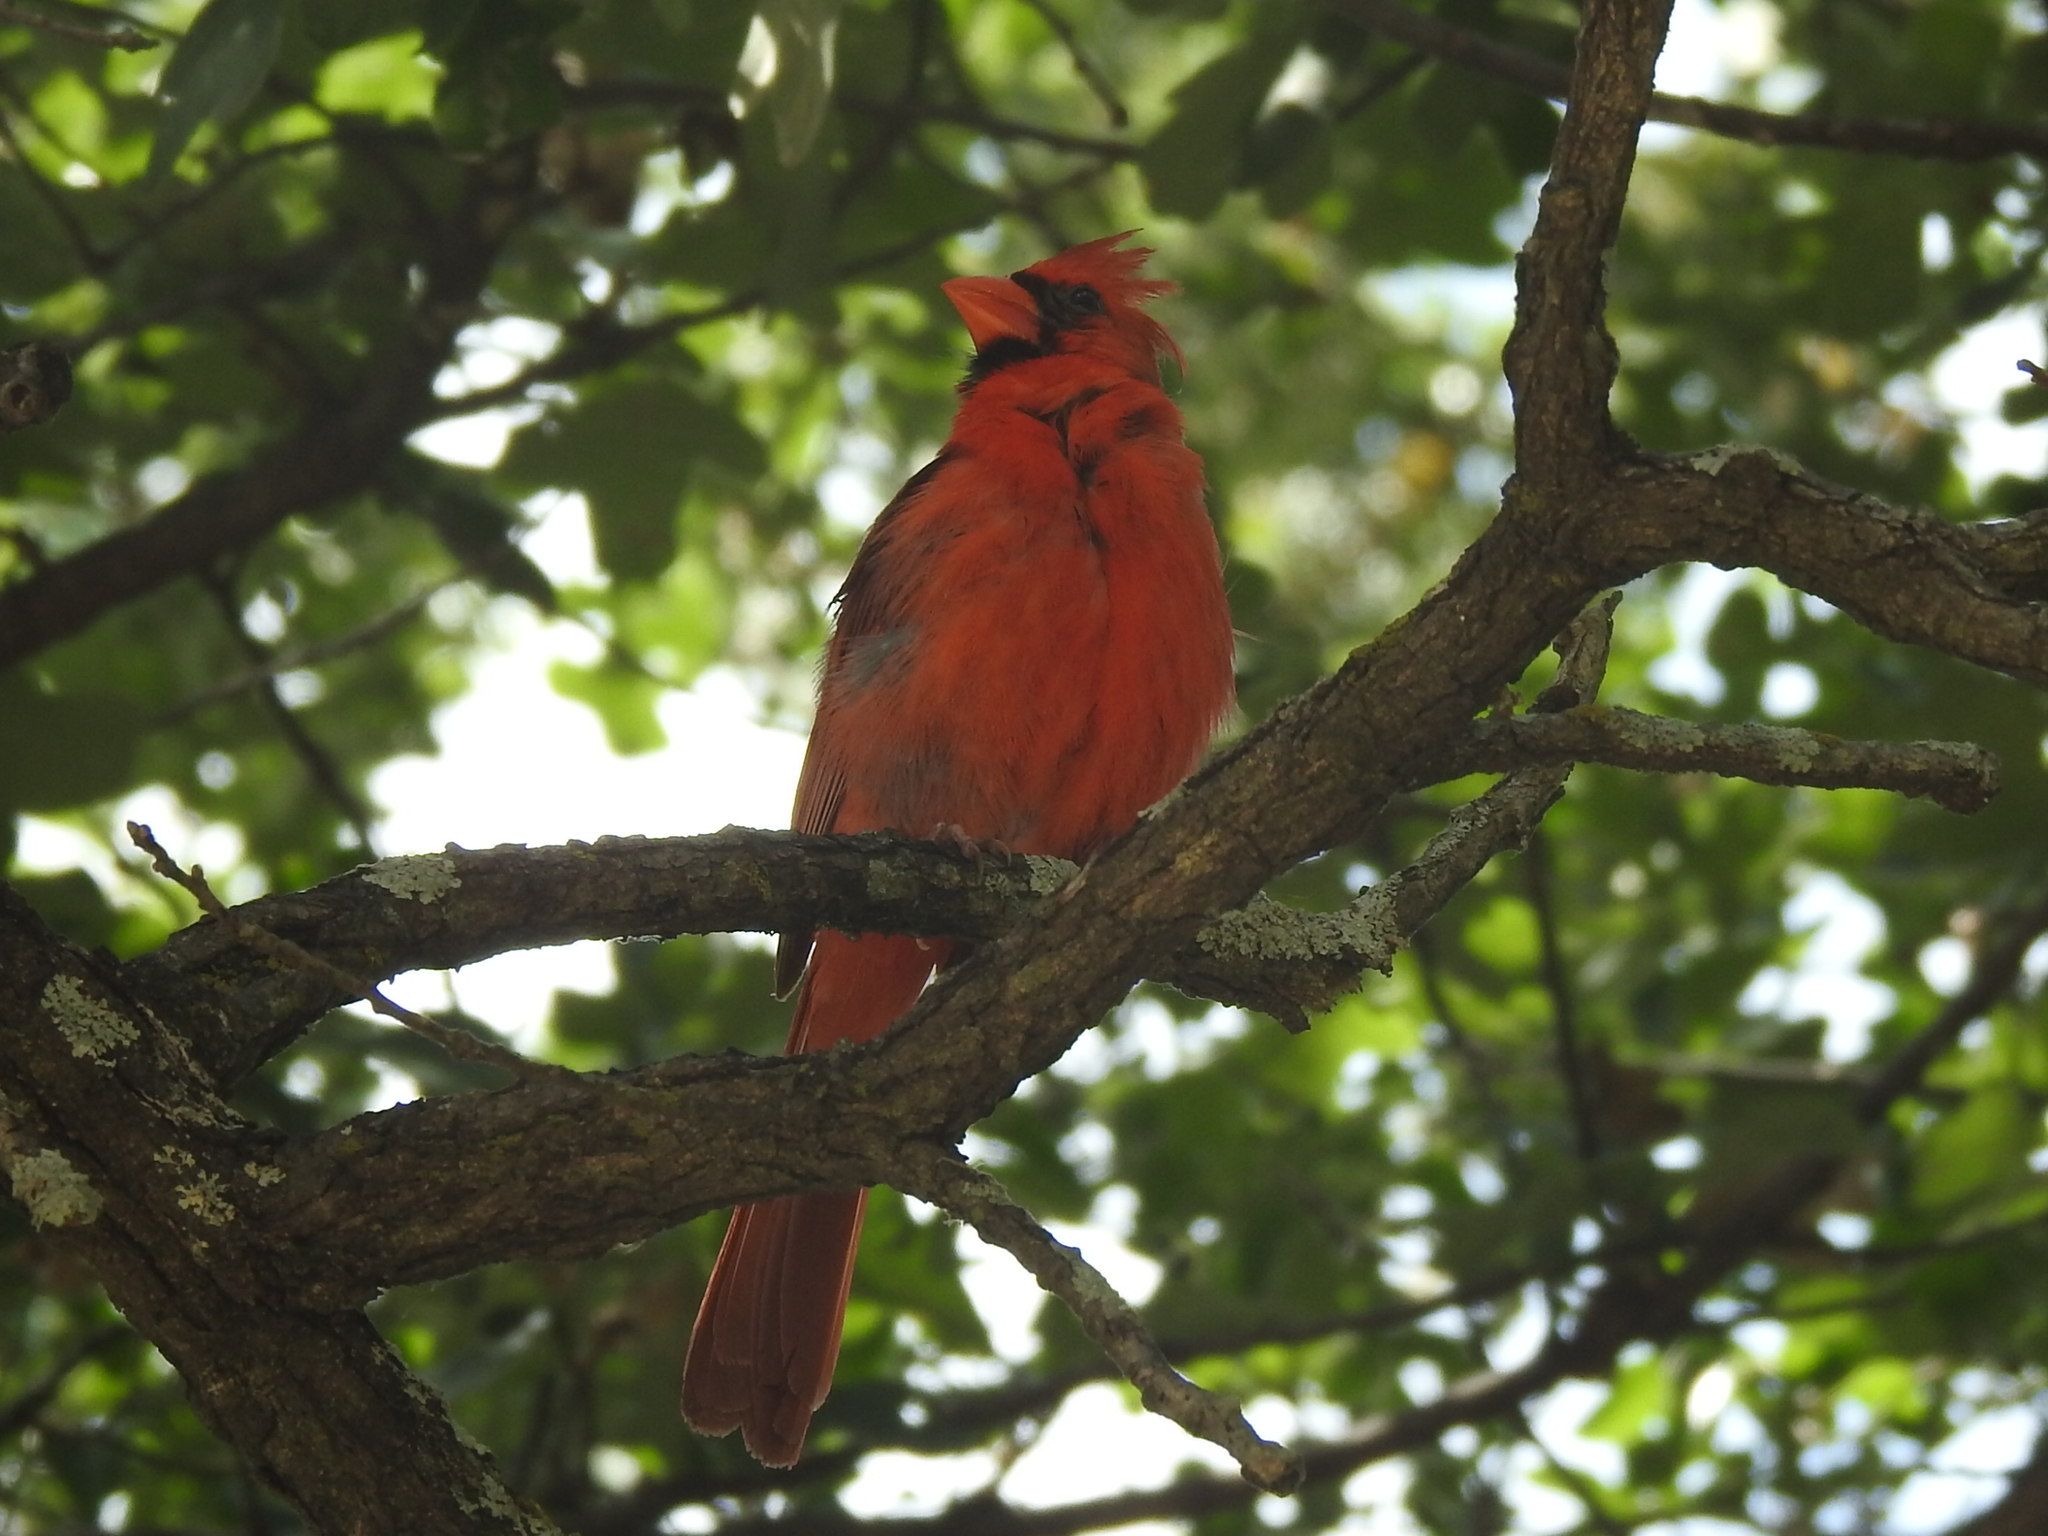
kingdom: Animalia
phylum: Chordata
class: Aves
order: Passeriformes
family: Cardinalidae
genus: Cardinalis
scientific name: Cardinalis cardinalis
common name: Northern cardinal
